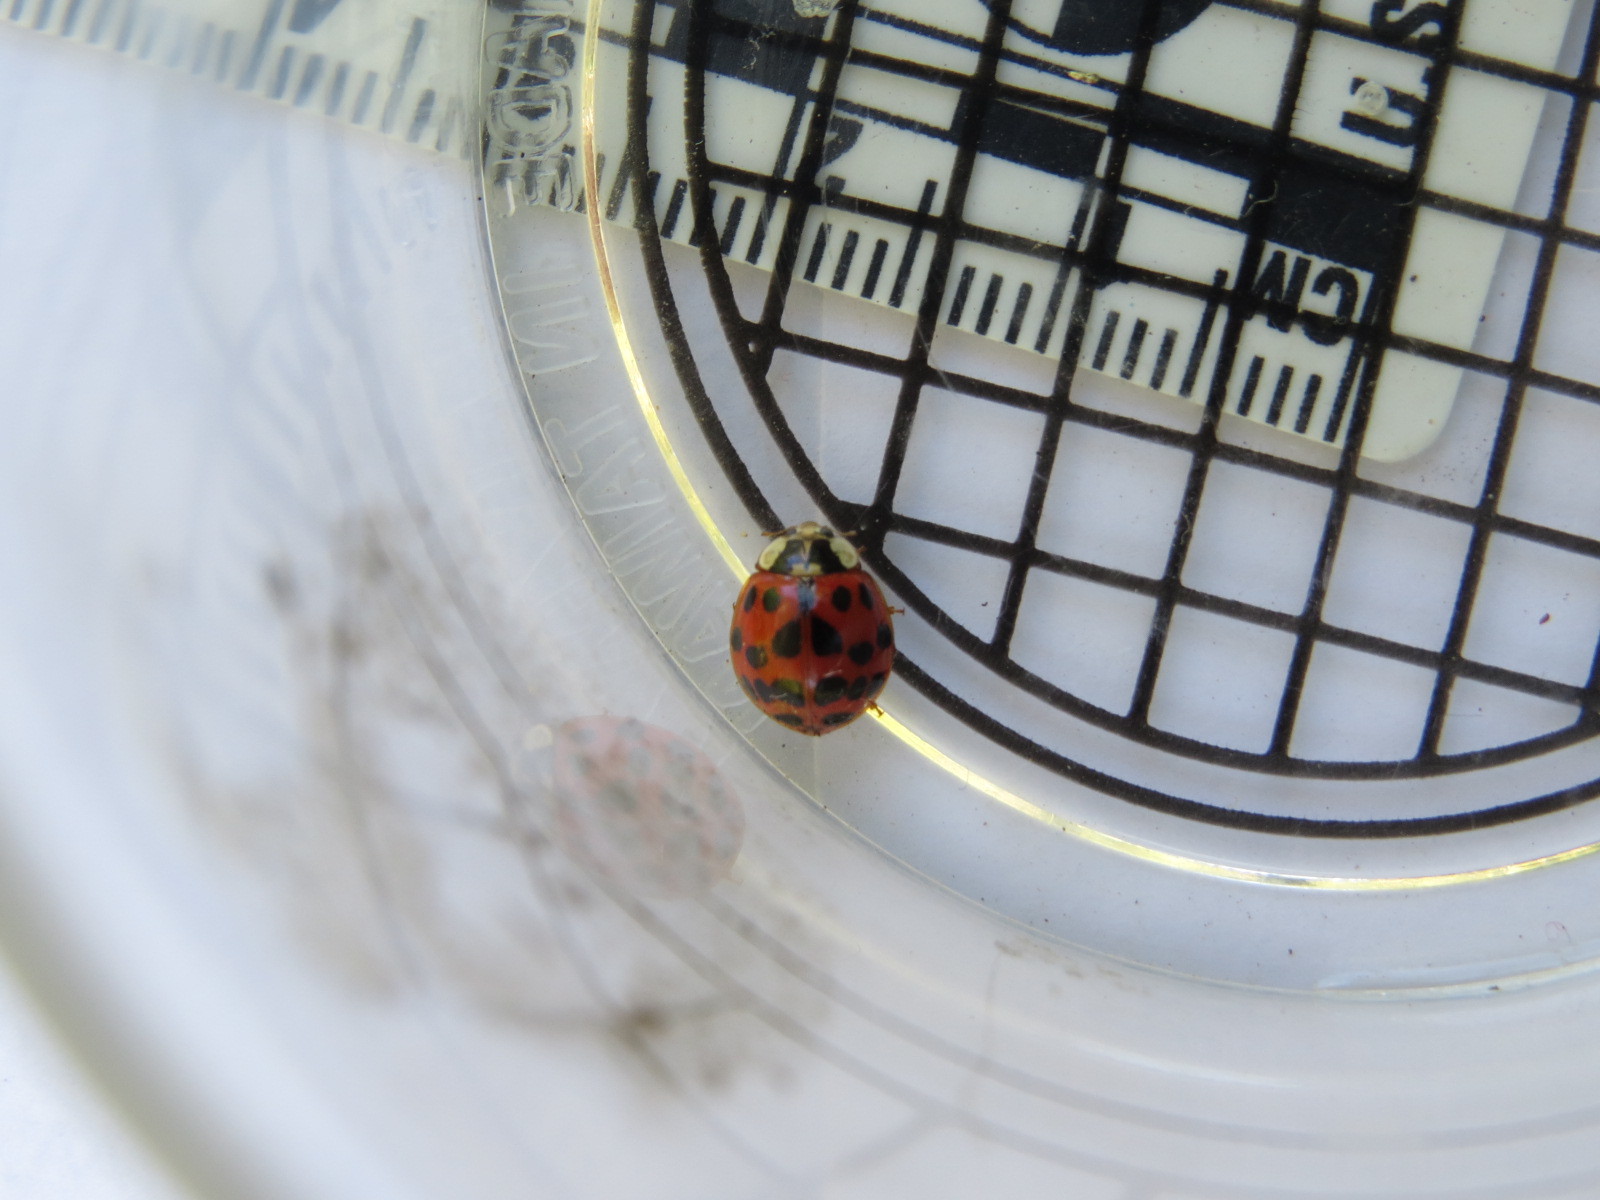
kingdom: Animalia
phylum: Arthropoda
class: Insecta
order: Coleoptera
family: Coccinellidae
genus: Harmonia
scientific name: Harmonia axyridis
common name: Harlequin ladybird
